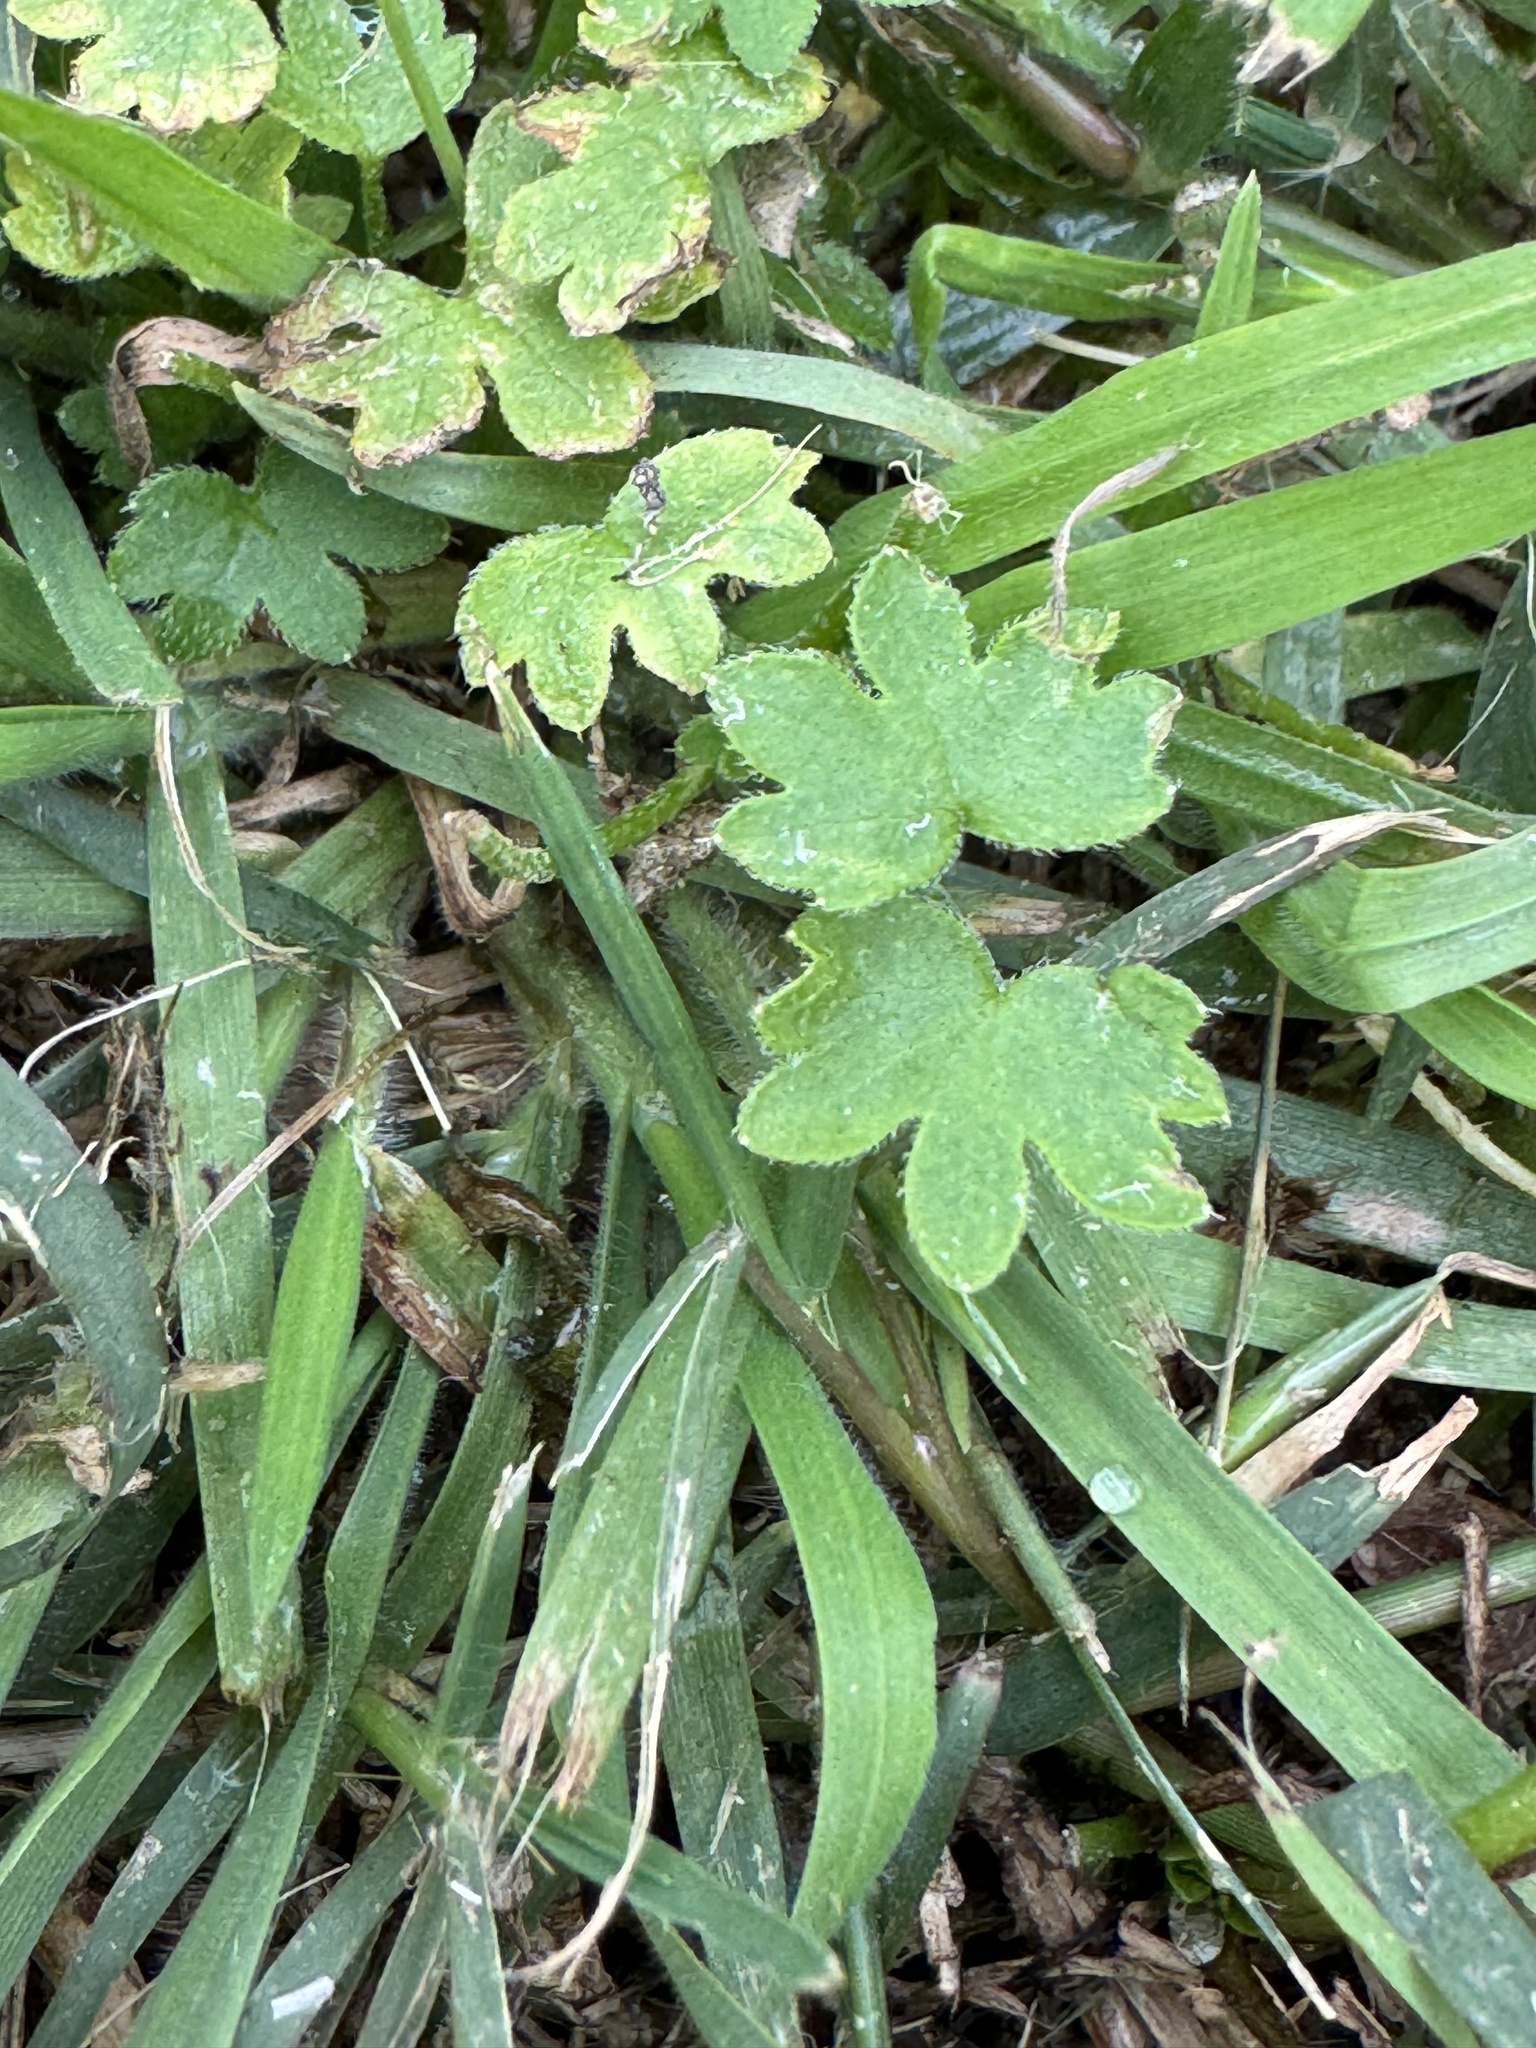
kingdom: Plantae
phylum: Tracheophyta
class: Magnoliopsida
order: Apiales
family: Apiaceae
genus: Bowlesia
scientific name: Bowlesia incana
